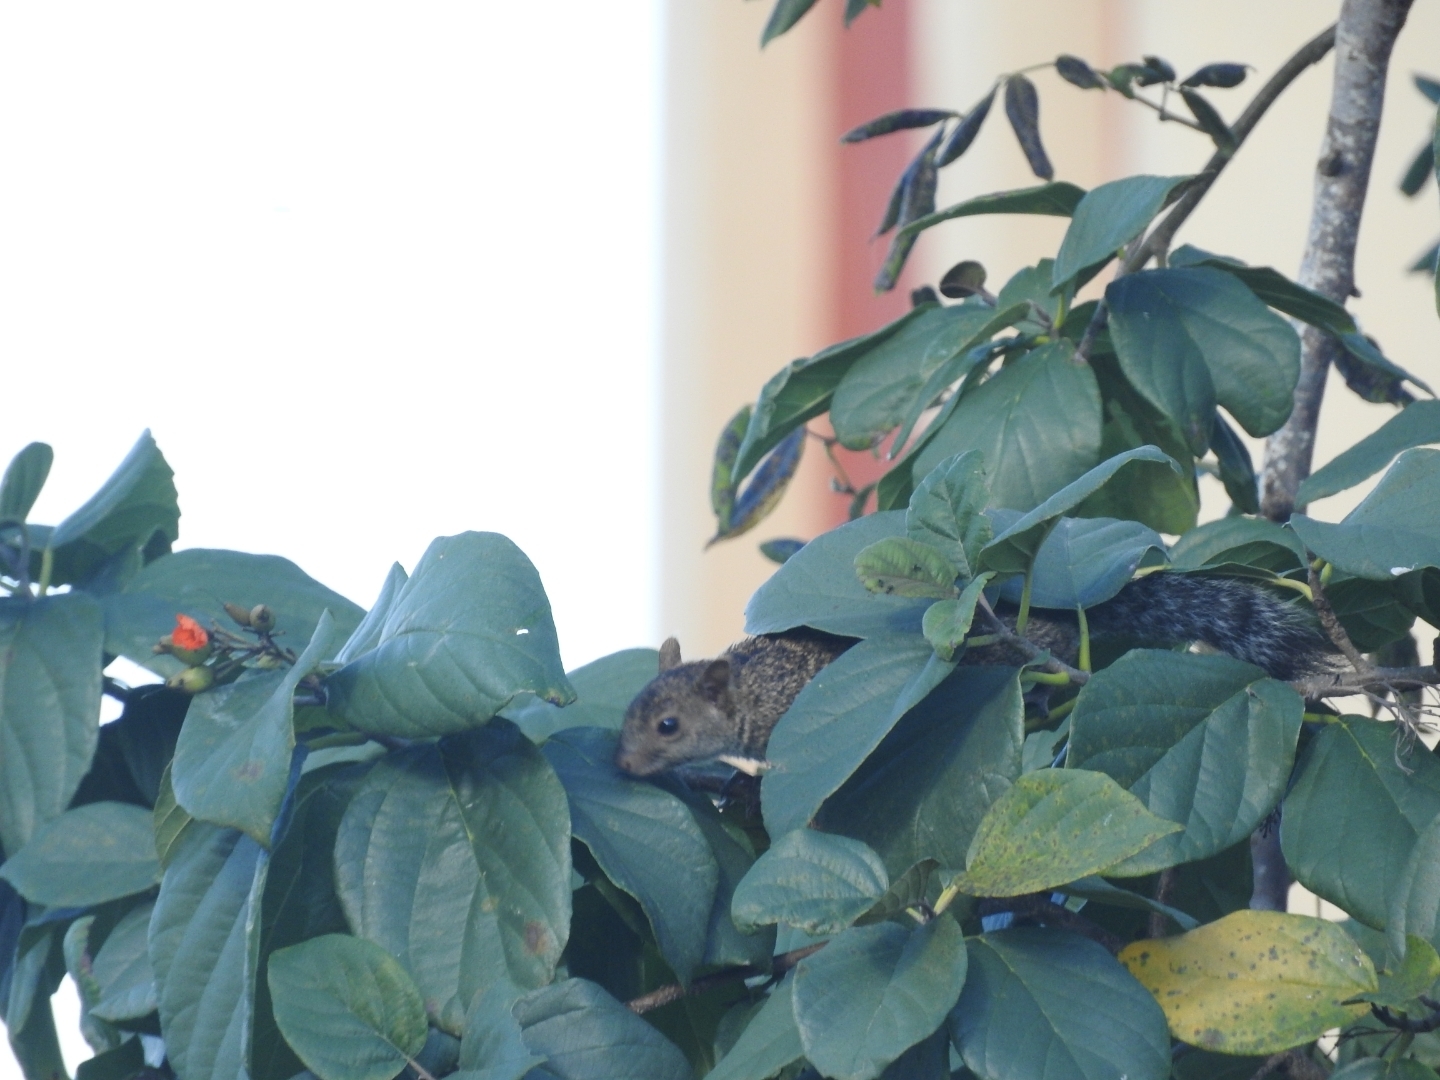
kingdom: Animalia
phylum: Chordata
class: Mammalia
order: Rodentia
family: Sciuridae
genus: Sciurus
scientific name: Sciurus yucatanensis
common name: Yucatan squirrel
